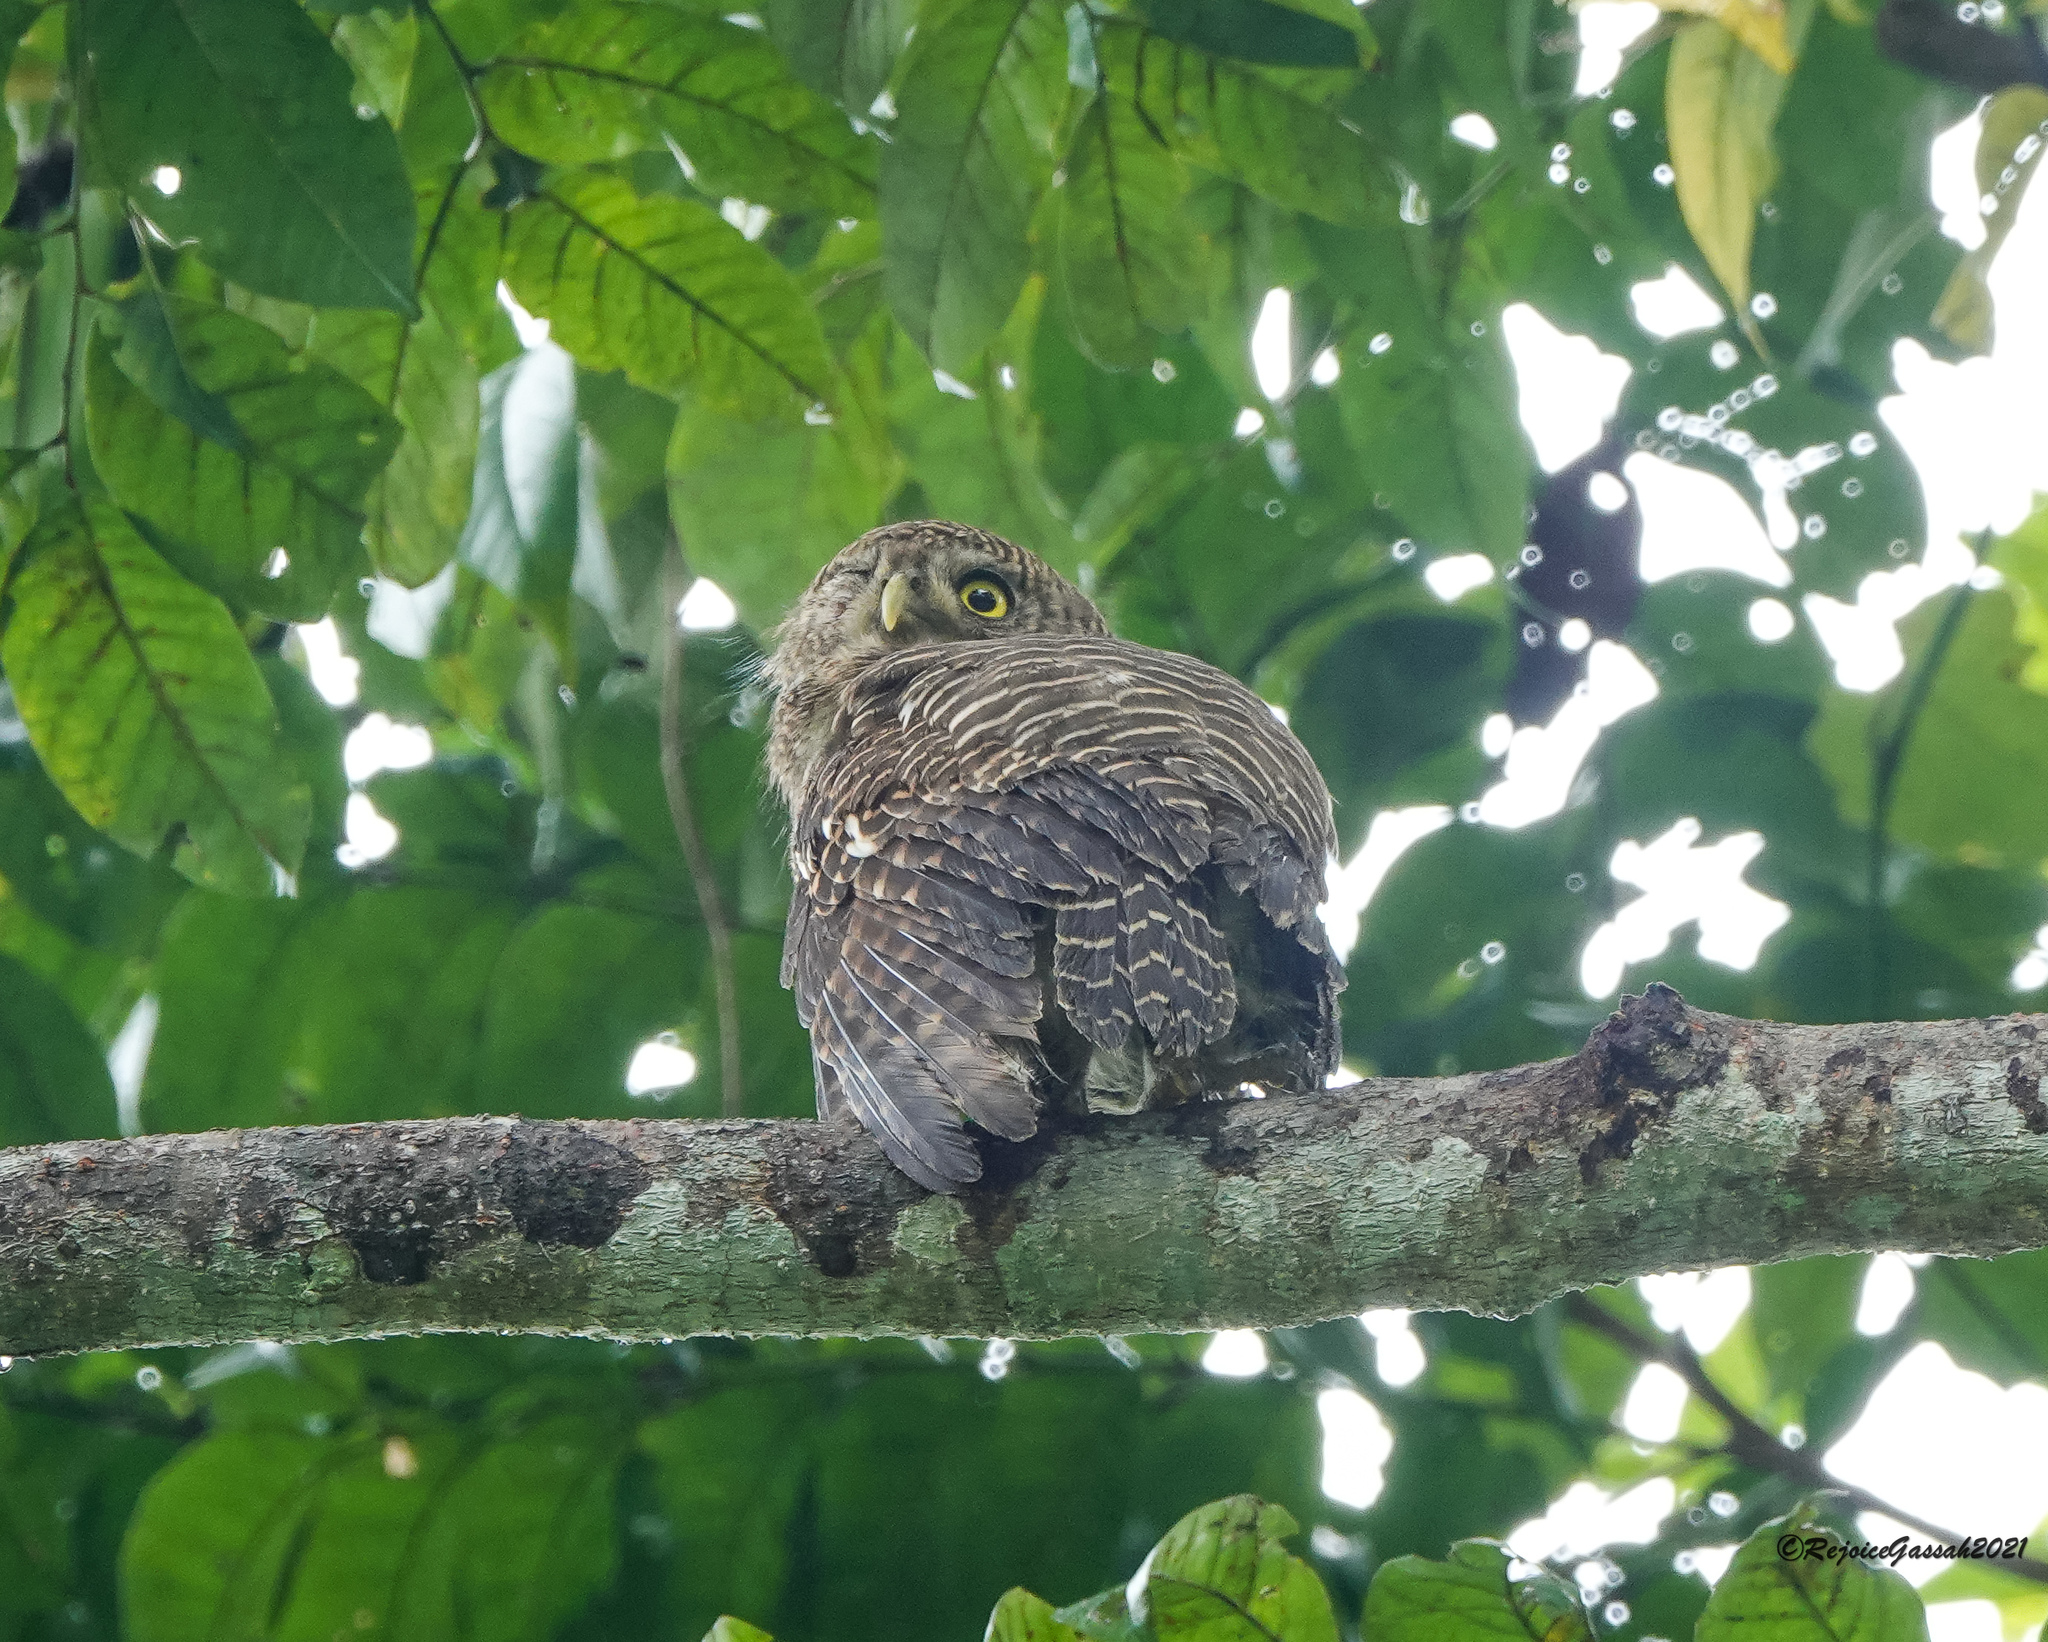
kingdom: Animalia
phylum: Chordata
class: Aves
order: Strigiformes
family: Strigidae
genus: Glaucidium
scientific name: Glaucidium cuculoides
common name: Asian barred owlet
